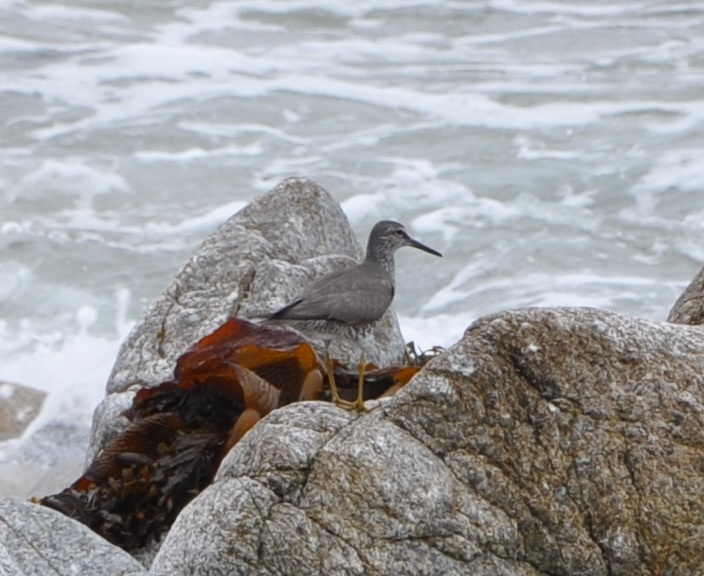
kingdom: Animalia
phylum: Chordata
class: Aves
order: Charadriiformes
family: Scolopacidae
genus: Tringa
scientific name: Tringa incana
